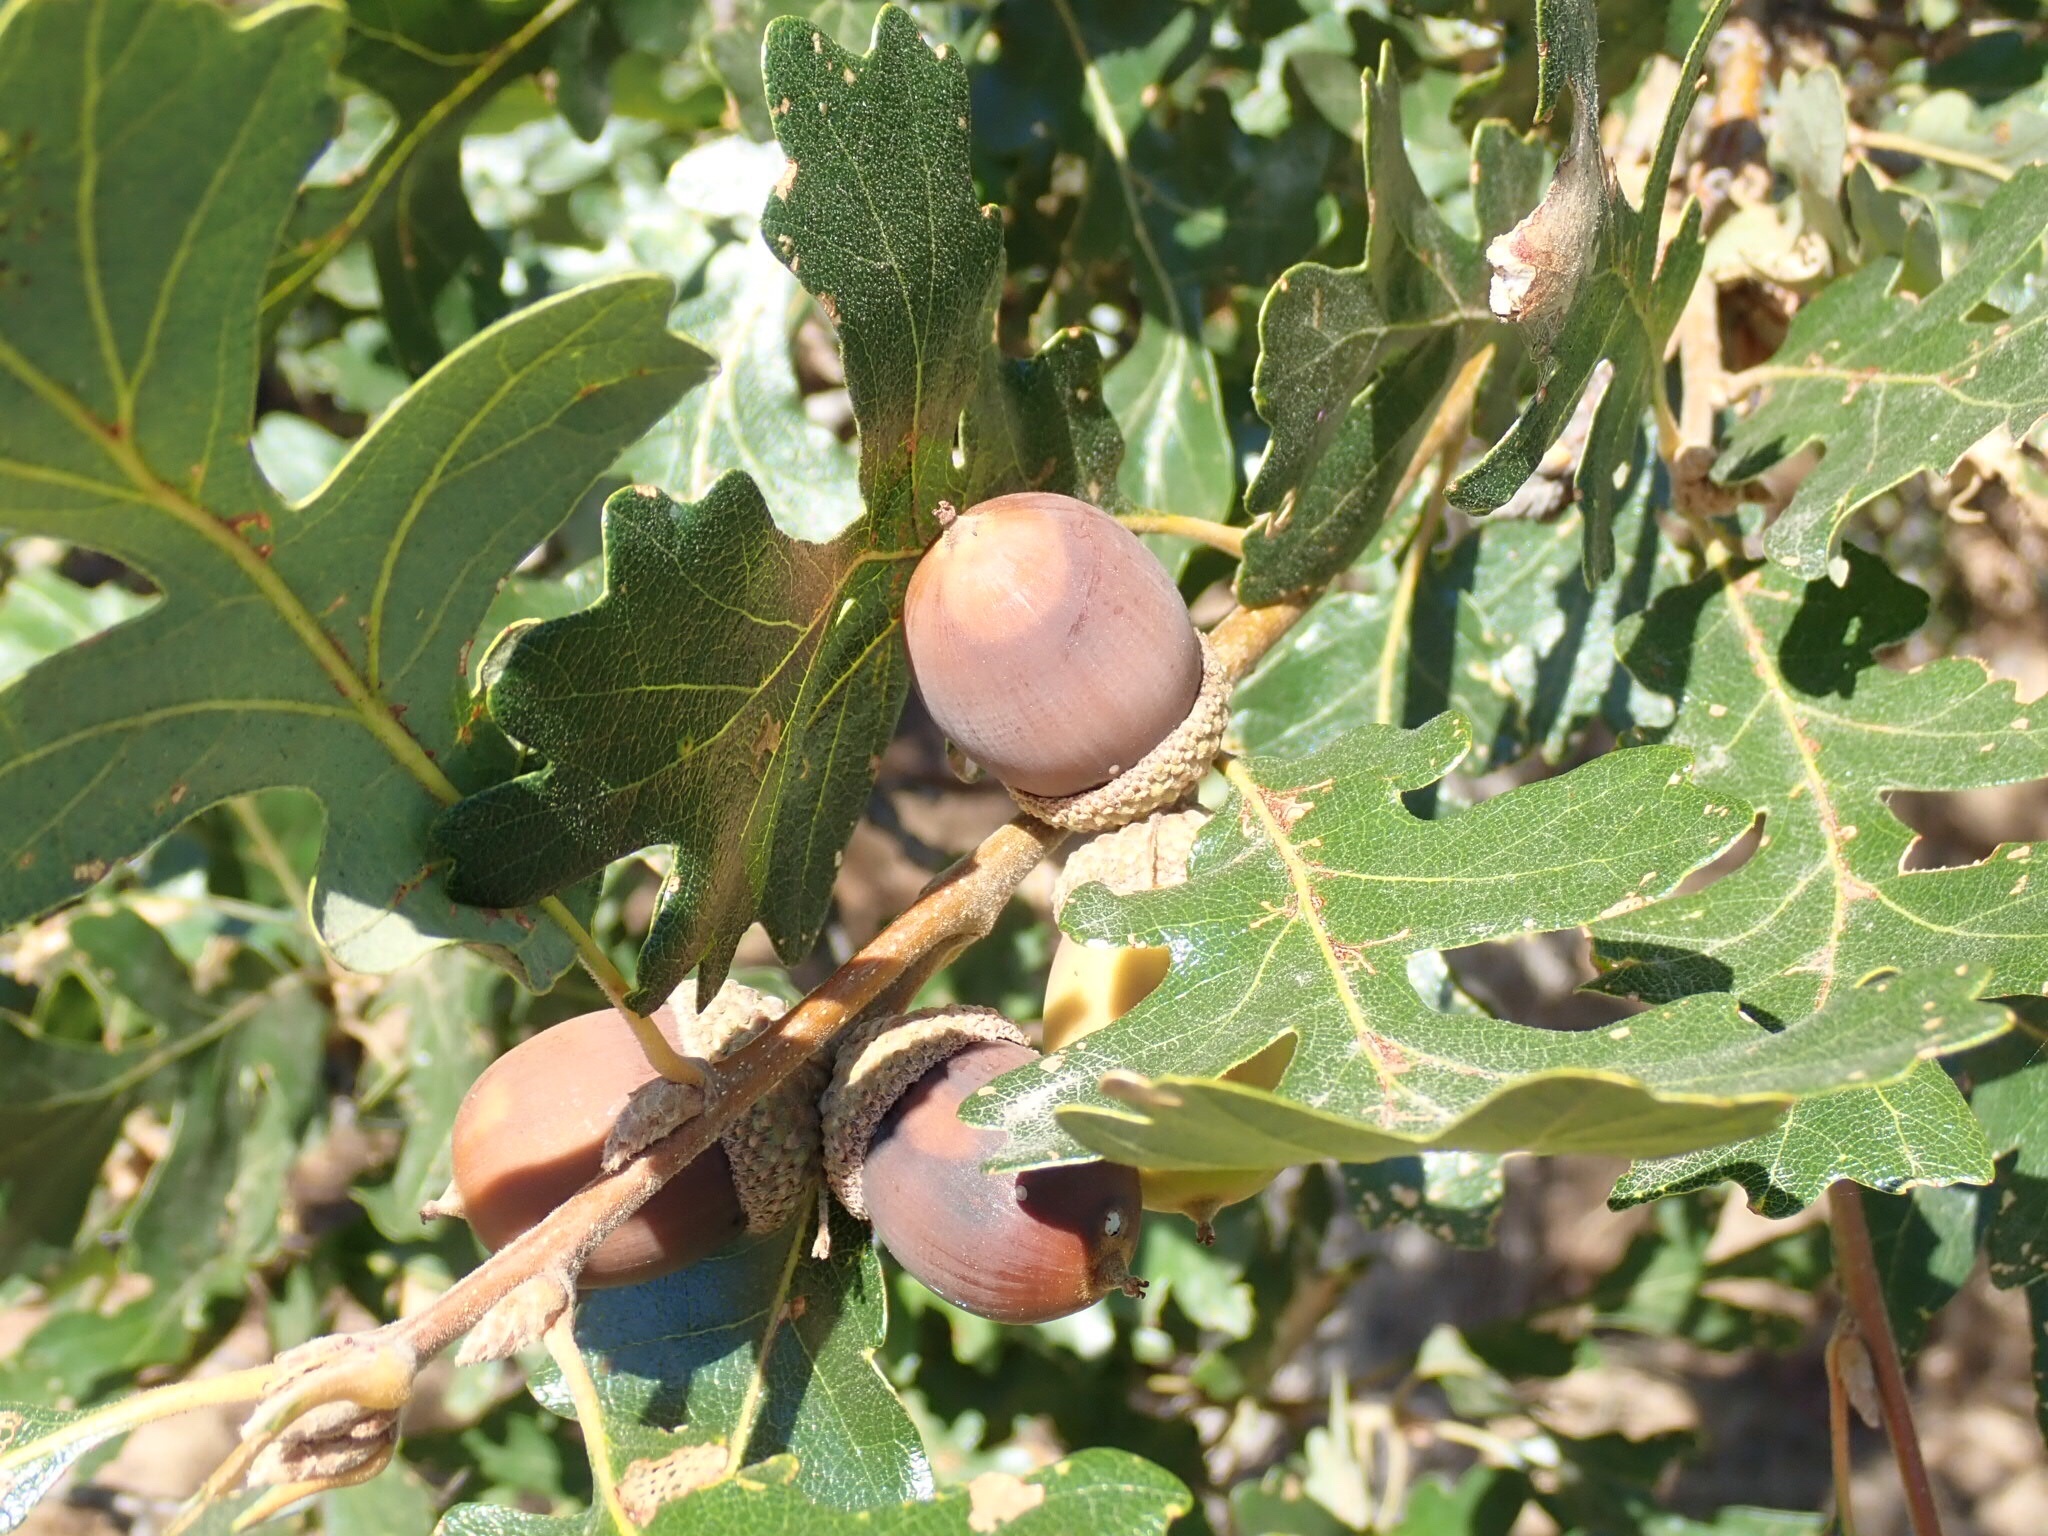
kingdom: Plantae
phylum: Tracheophyta
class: Magnoliopsida
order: Fagales
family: Fagaceae
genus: Quercus
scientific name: Quercus garryana
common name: Garry oak
